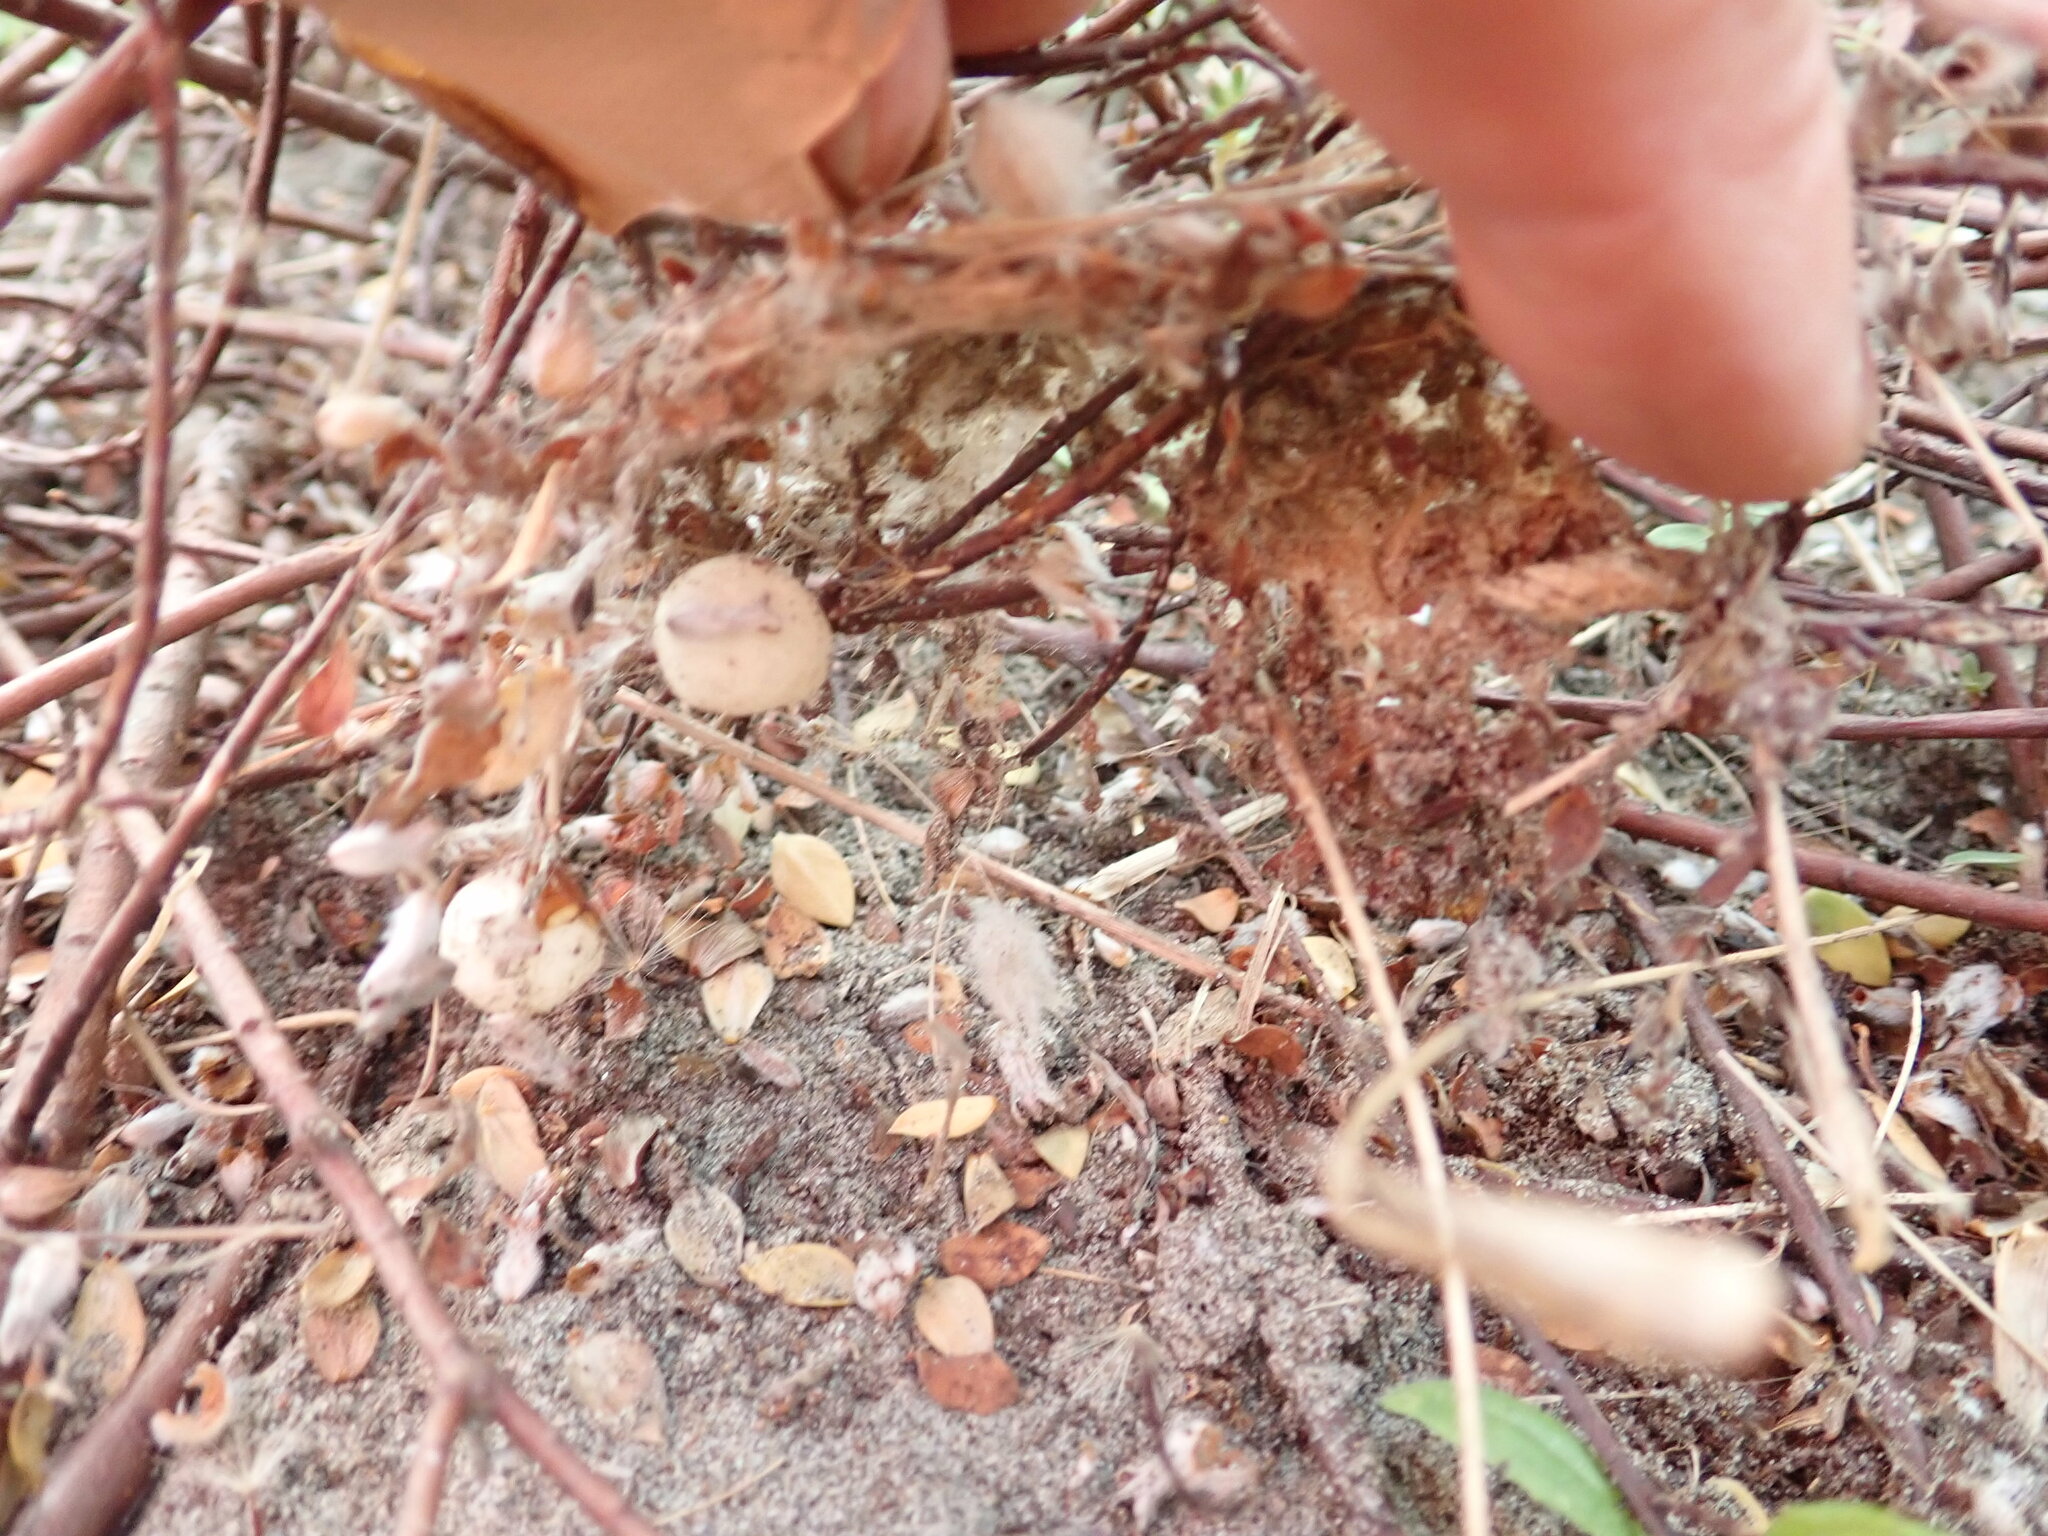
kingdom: Plantae
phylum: Tracheophyta
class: Magnoliopsida
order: Malvales
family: Thymelaeaceae
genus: Pimelea
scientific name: Pimelea villosa
